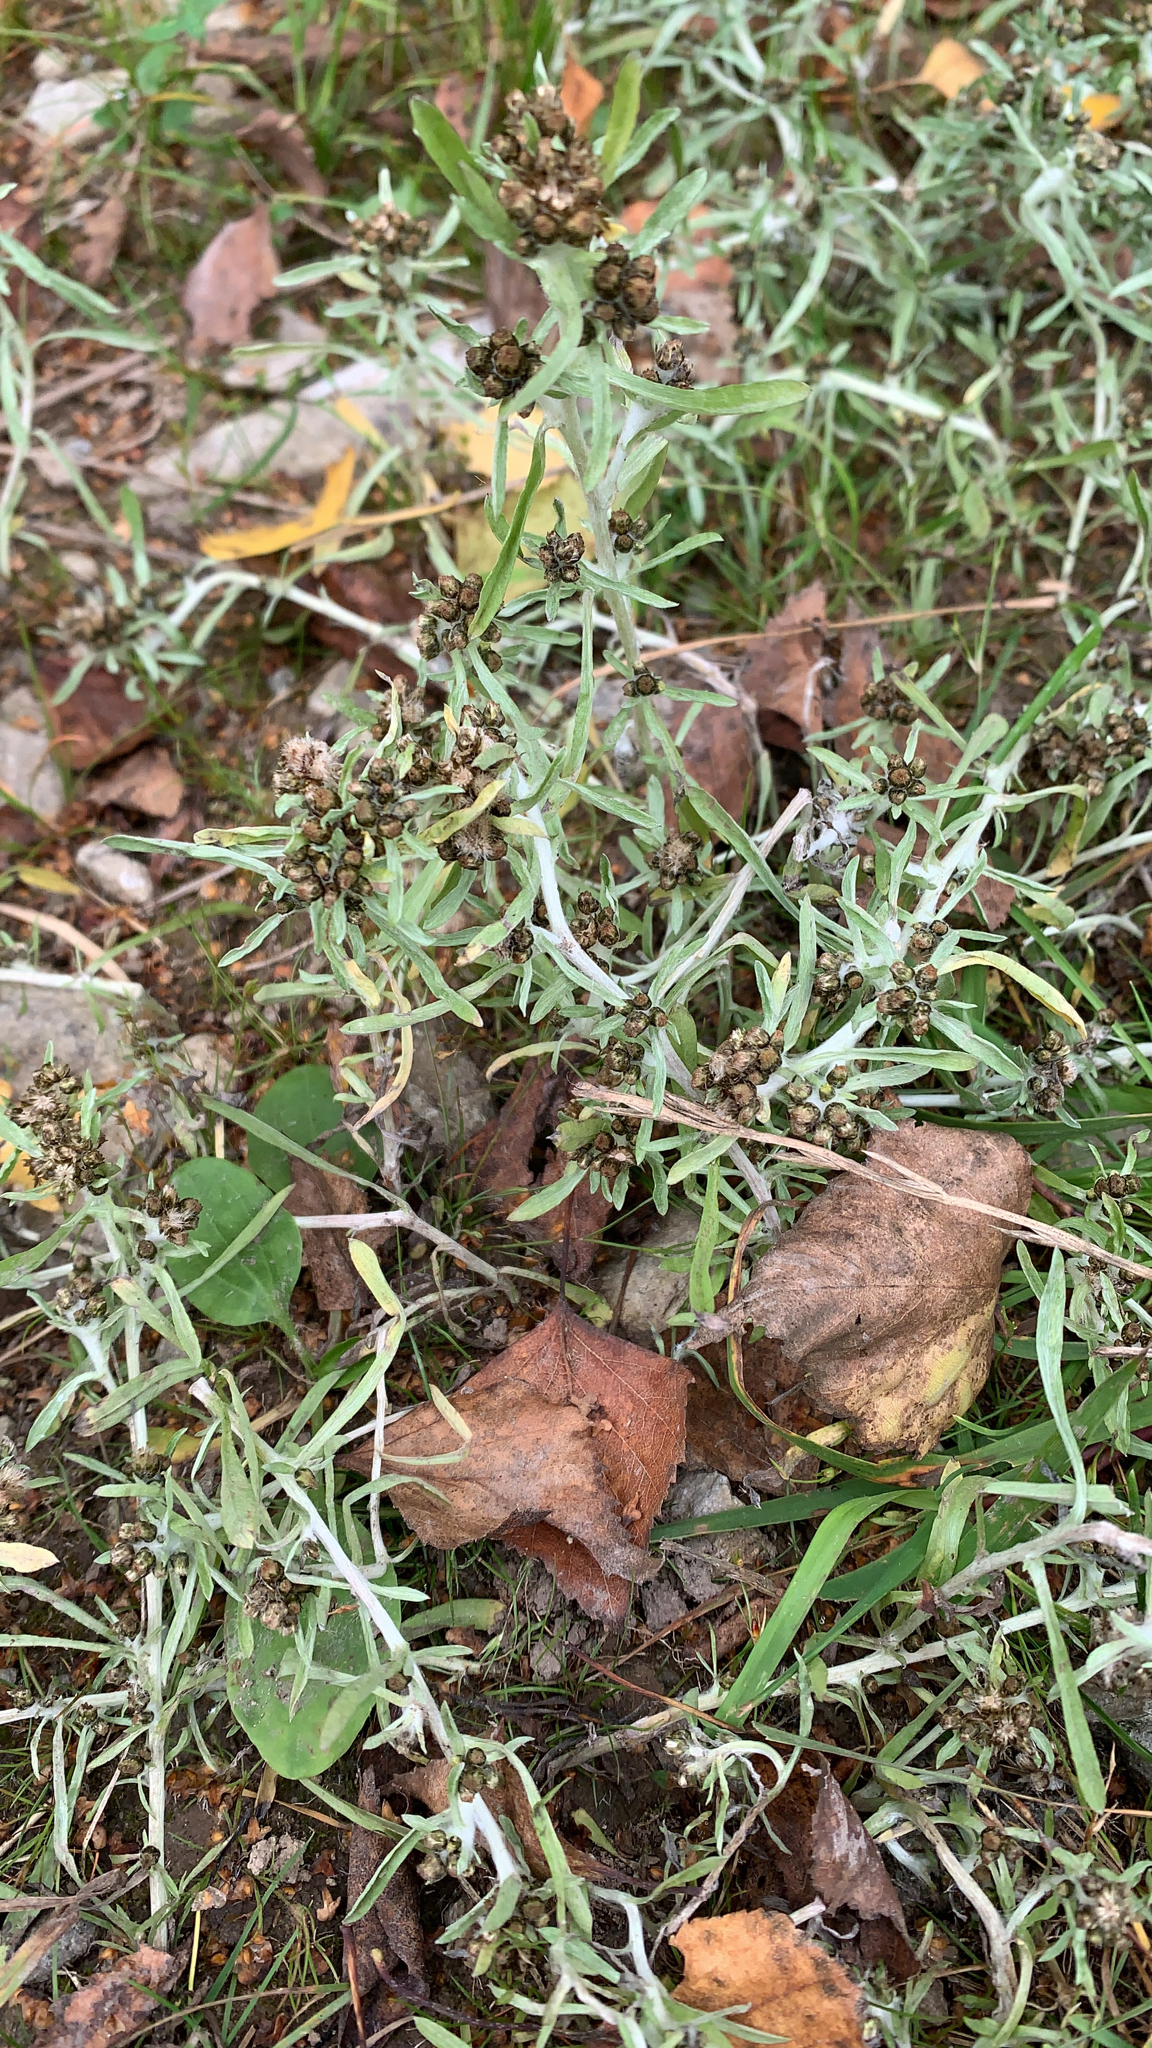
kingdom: Plantae
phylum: Tracheophyta
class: Magnoliopsida
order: Asterales
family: Asteraceae
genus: Gnaphalium
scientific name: Gnaphalium uliginosum
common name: Marsh cudweed
